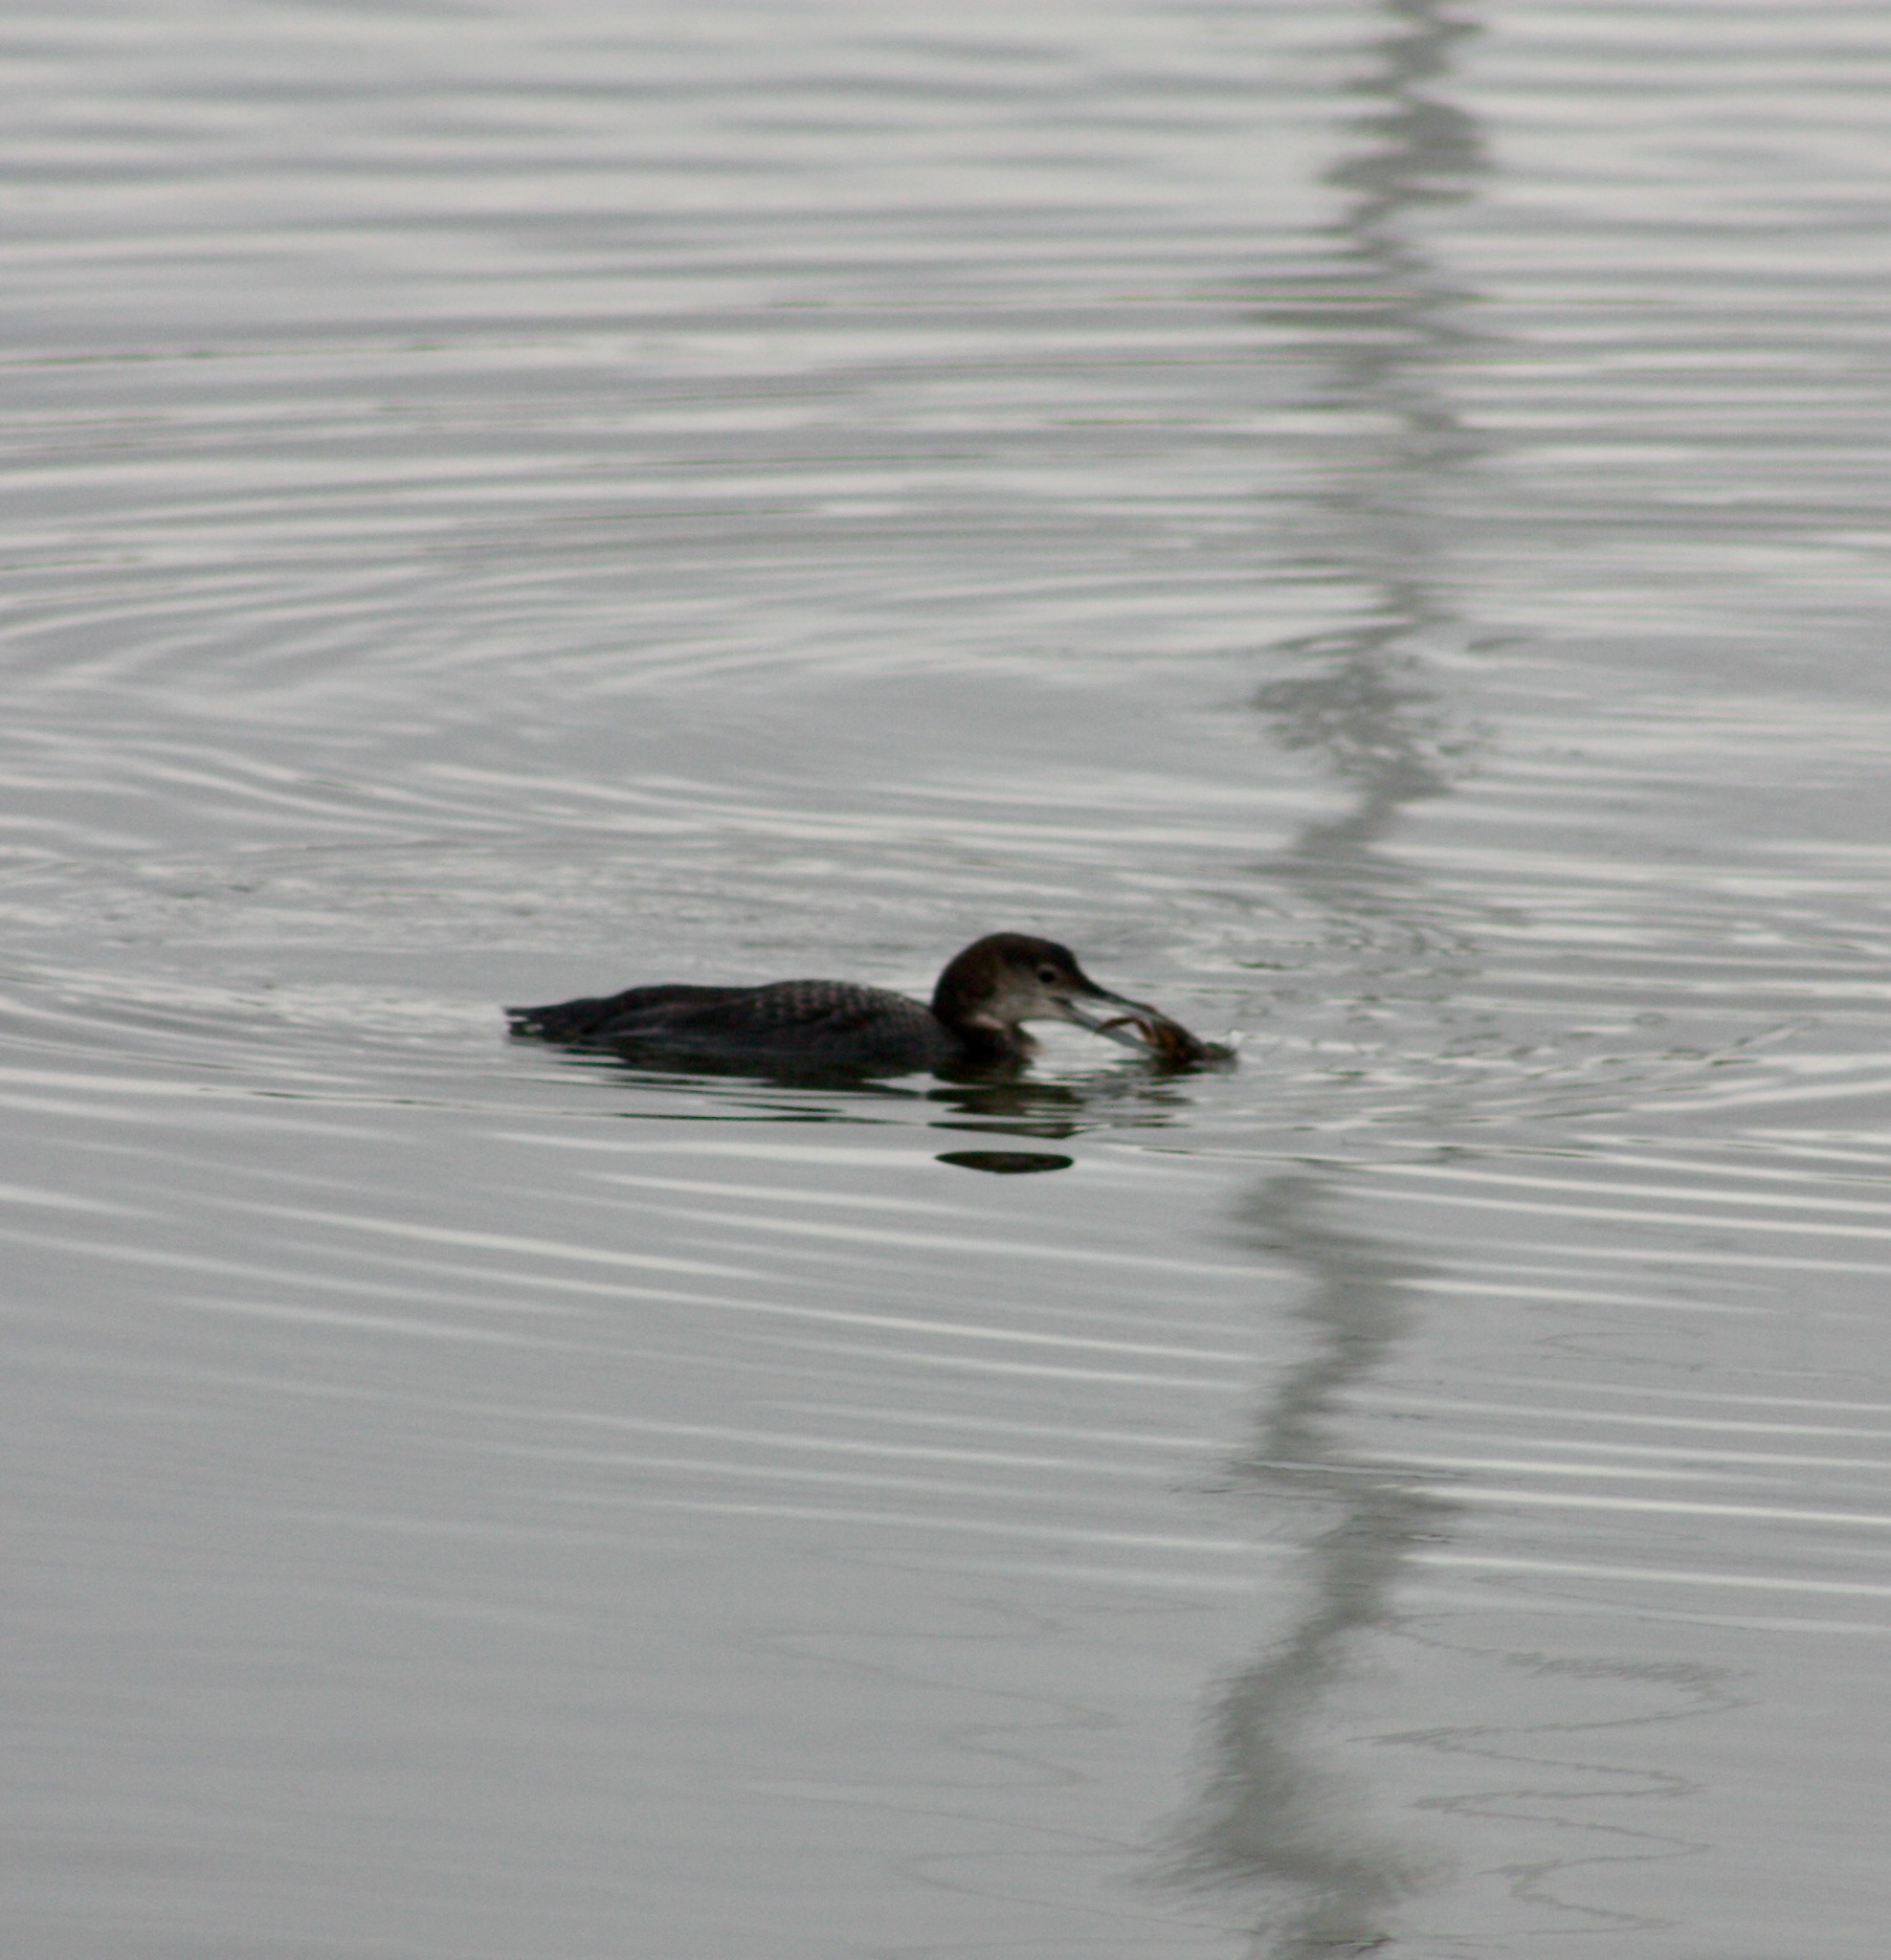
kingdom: Animalia
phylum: Chordata
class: Aves
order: Gaviiformes
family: Gaviidae
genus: Gavia
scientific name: Gavia immer
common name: Common loon
